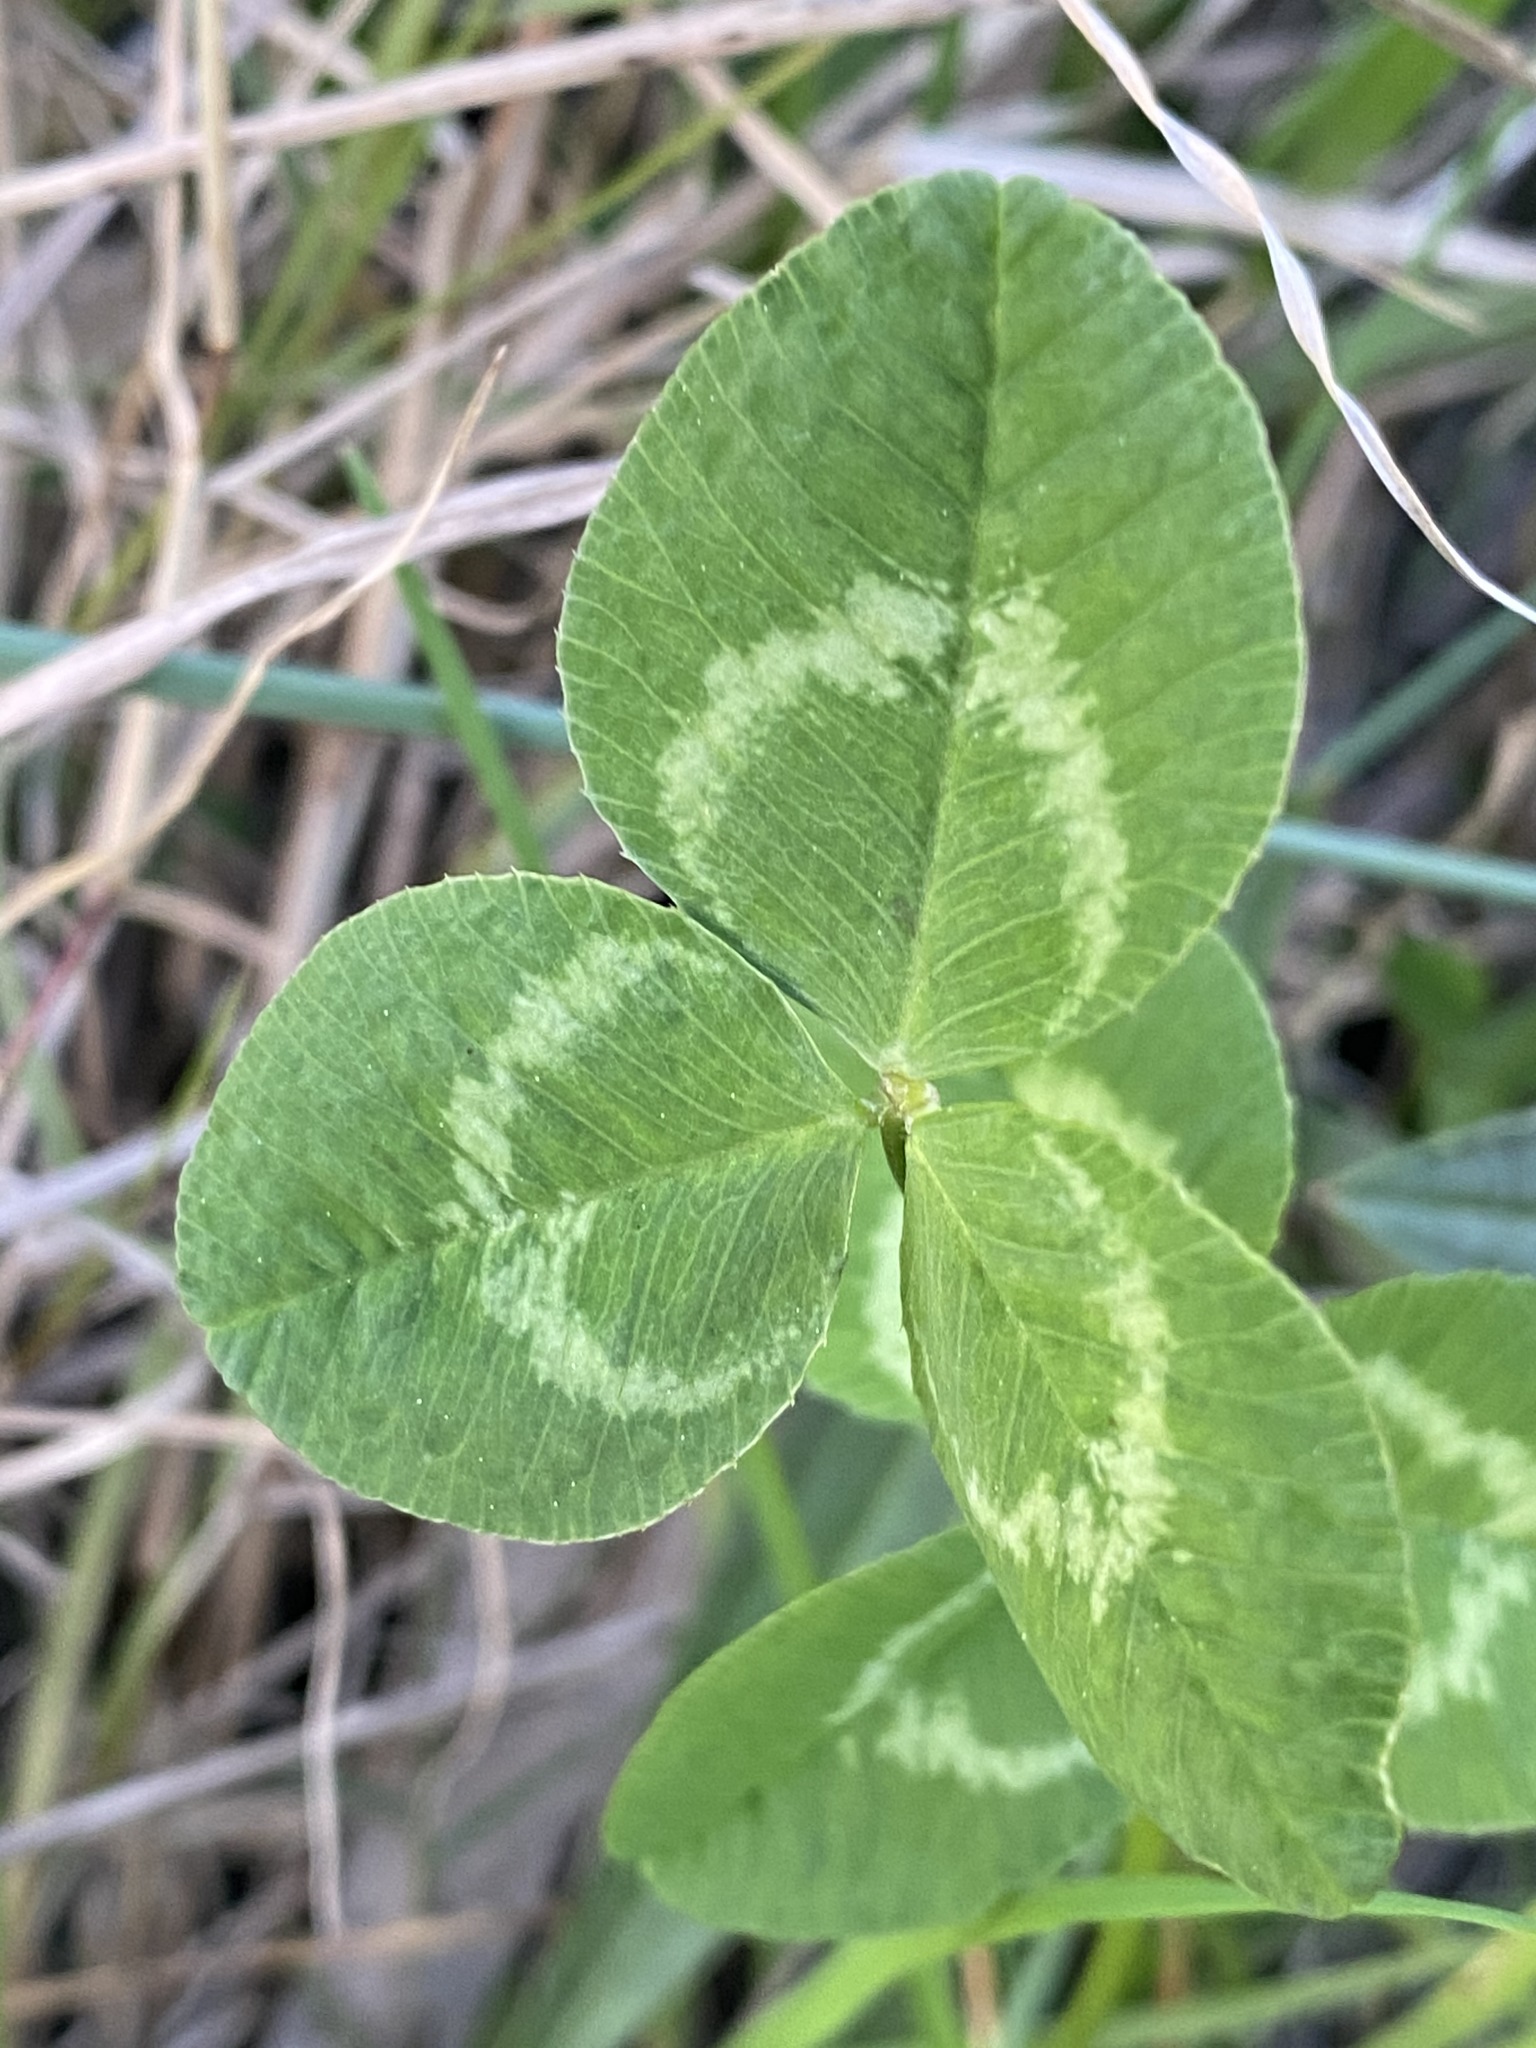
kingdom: Plantae
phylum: Tracheophyta
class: Magnoliopsida
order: Fabales
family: Fabaceae
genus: Trifolium
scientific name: Trifolium repens
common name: White clover
